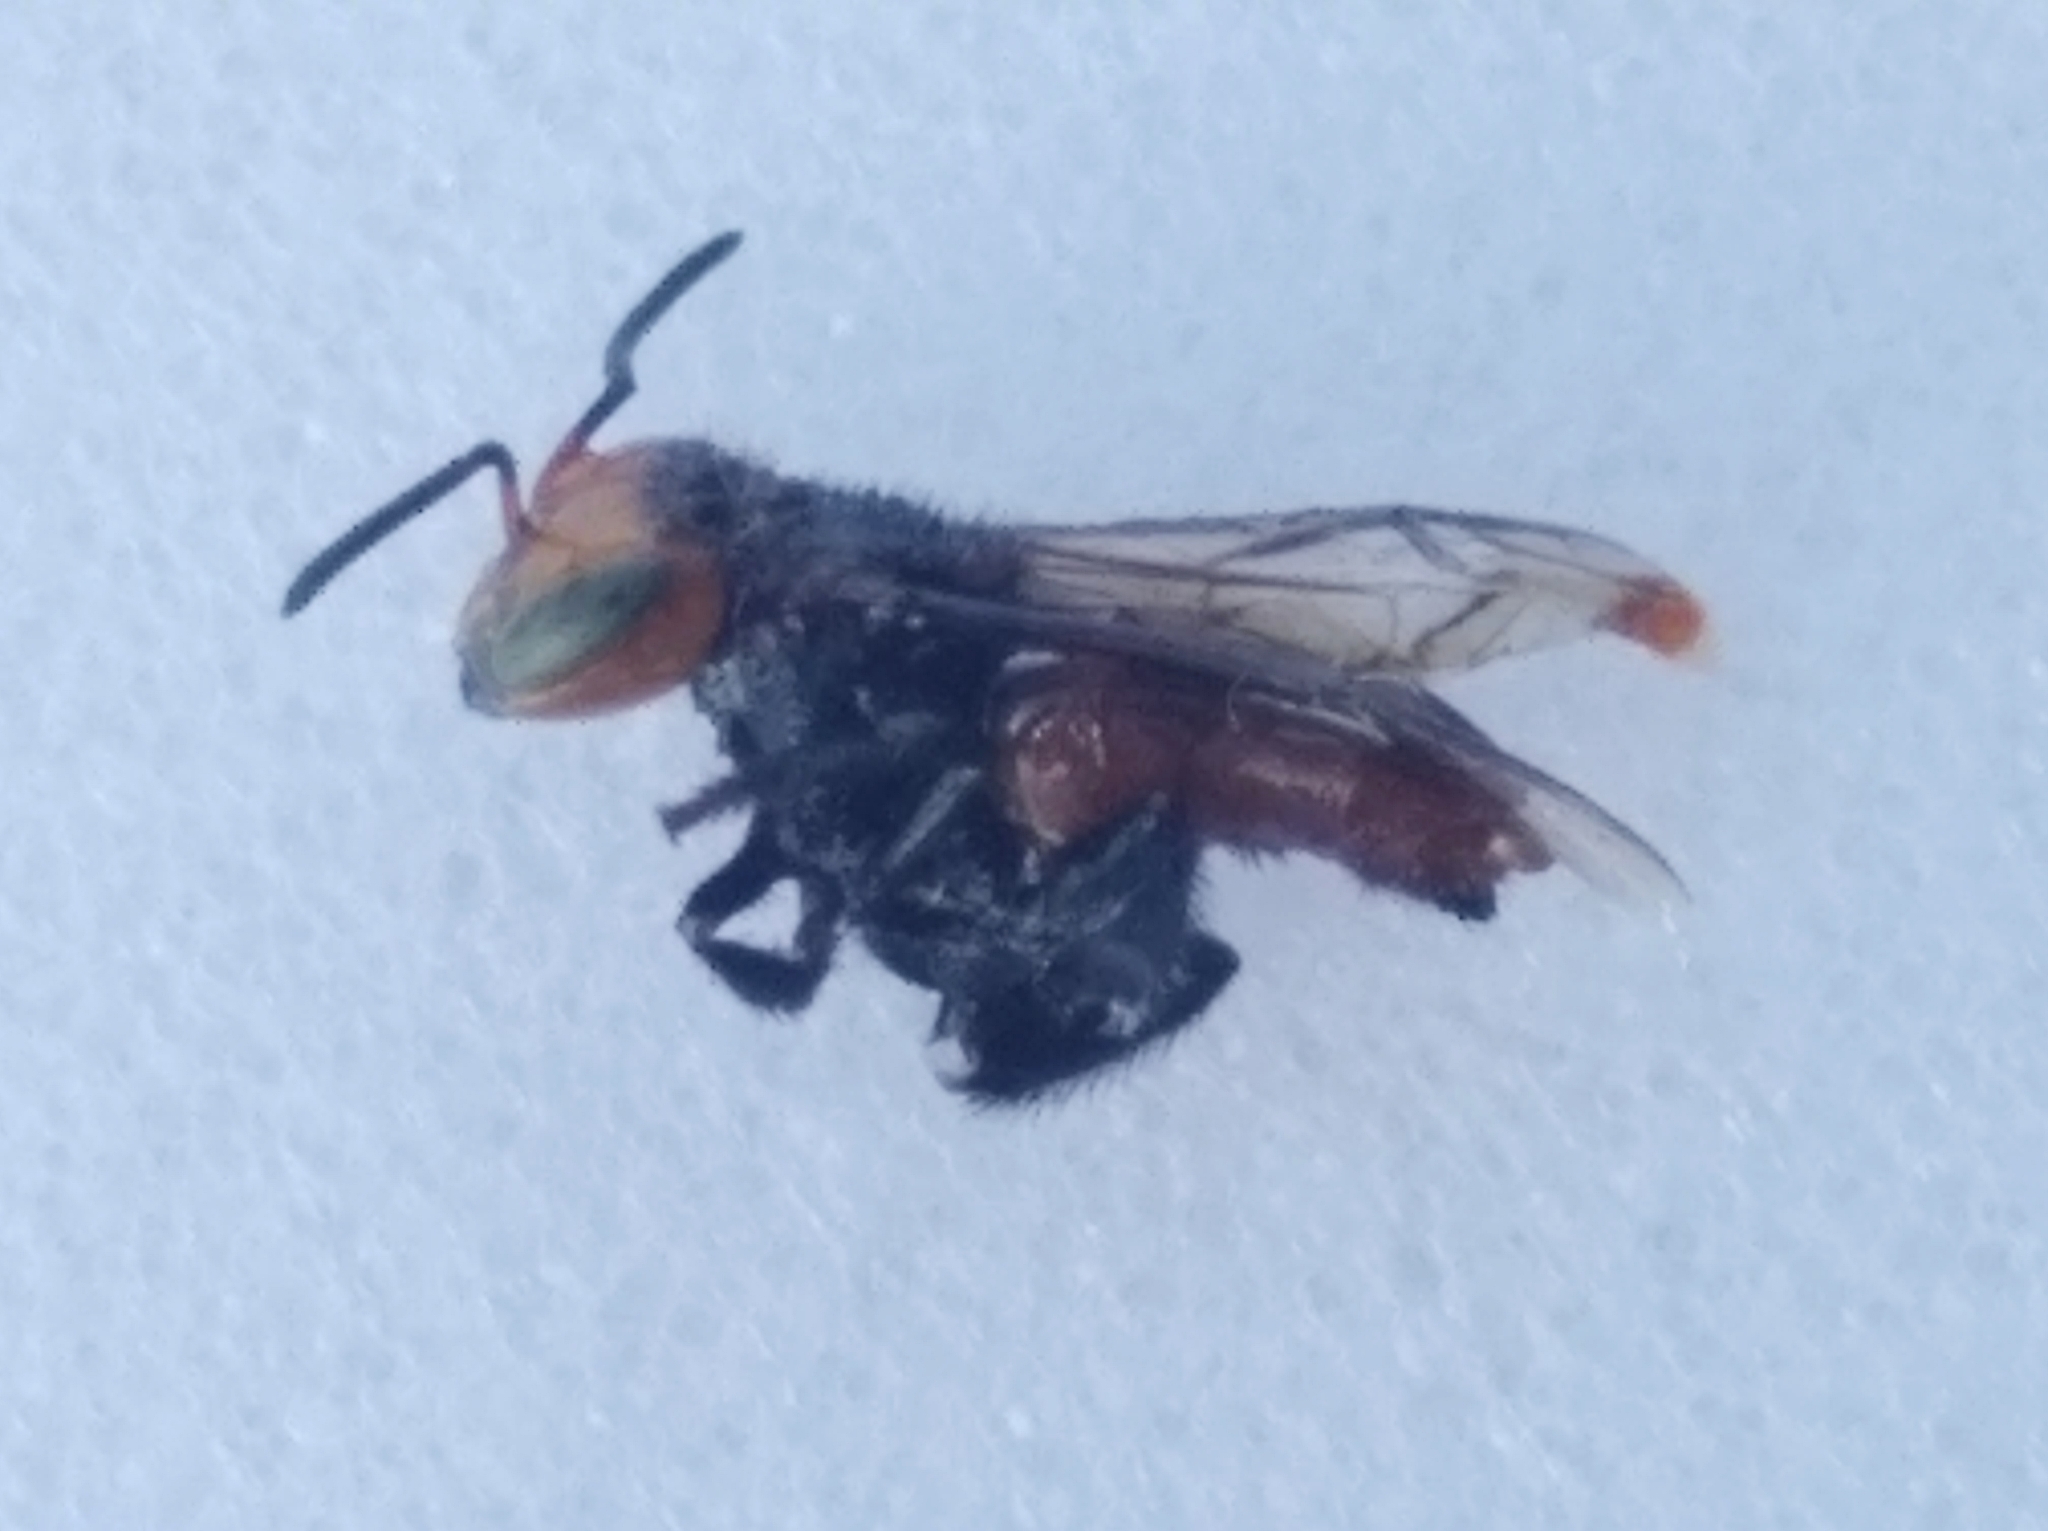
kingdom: Animalia
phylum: Arthropoda
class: Insecta
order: Hymenoptera
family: Apidae
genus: Oxytrigona
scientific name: Oxytrigona tataira
